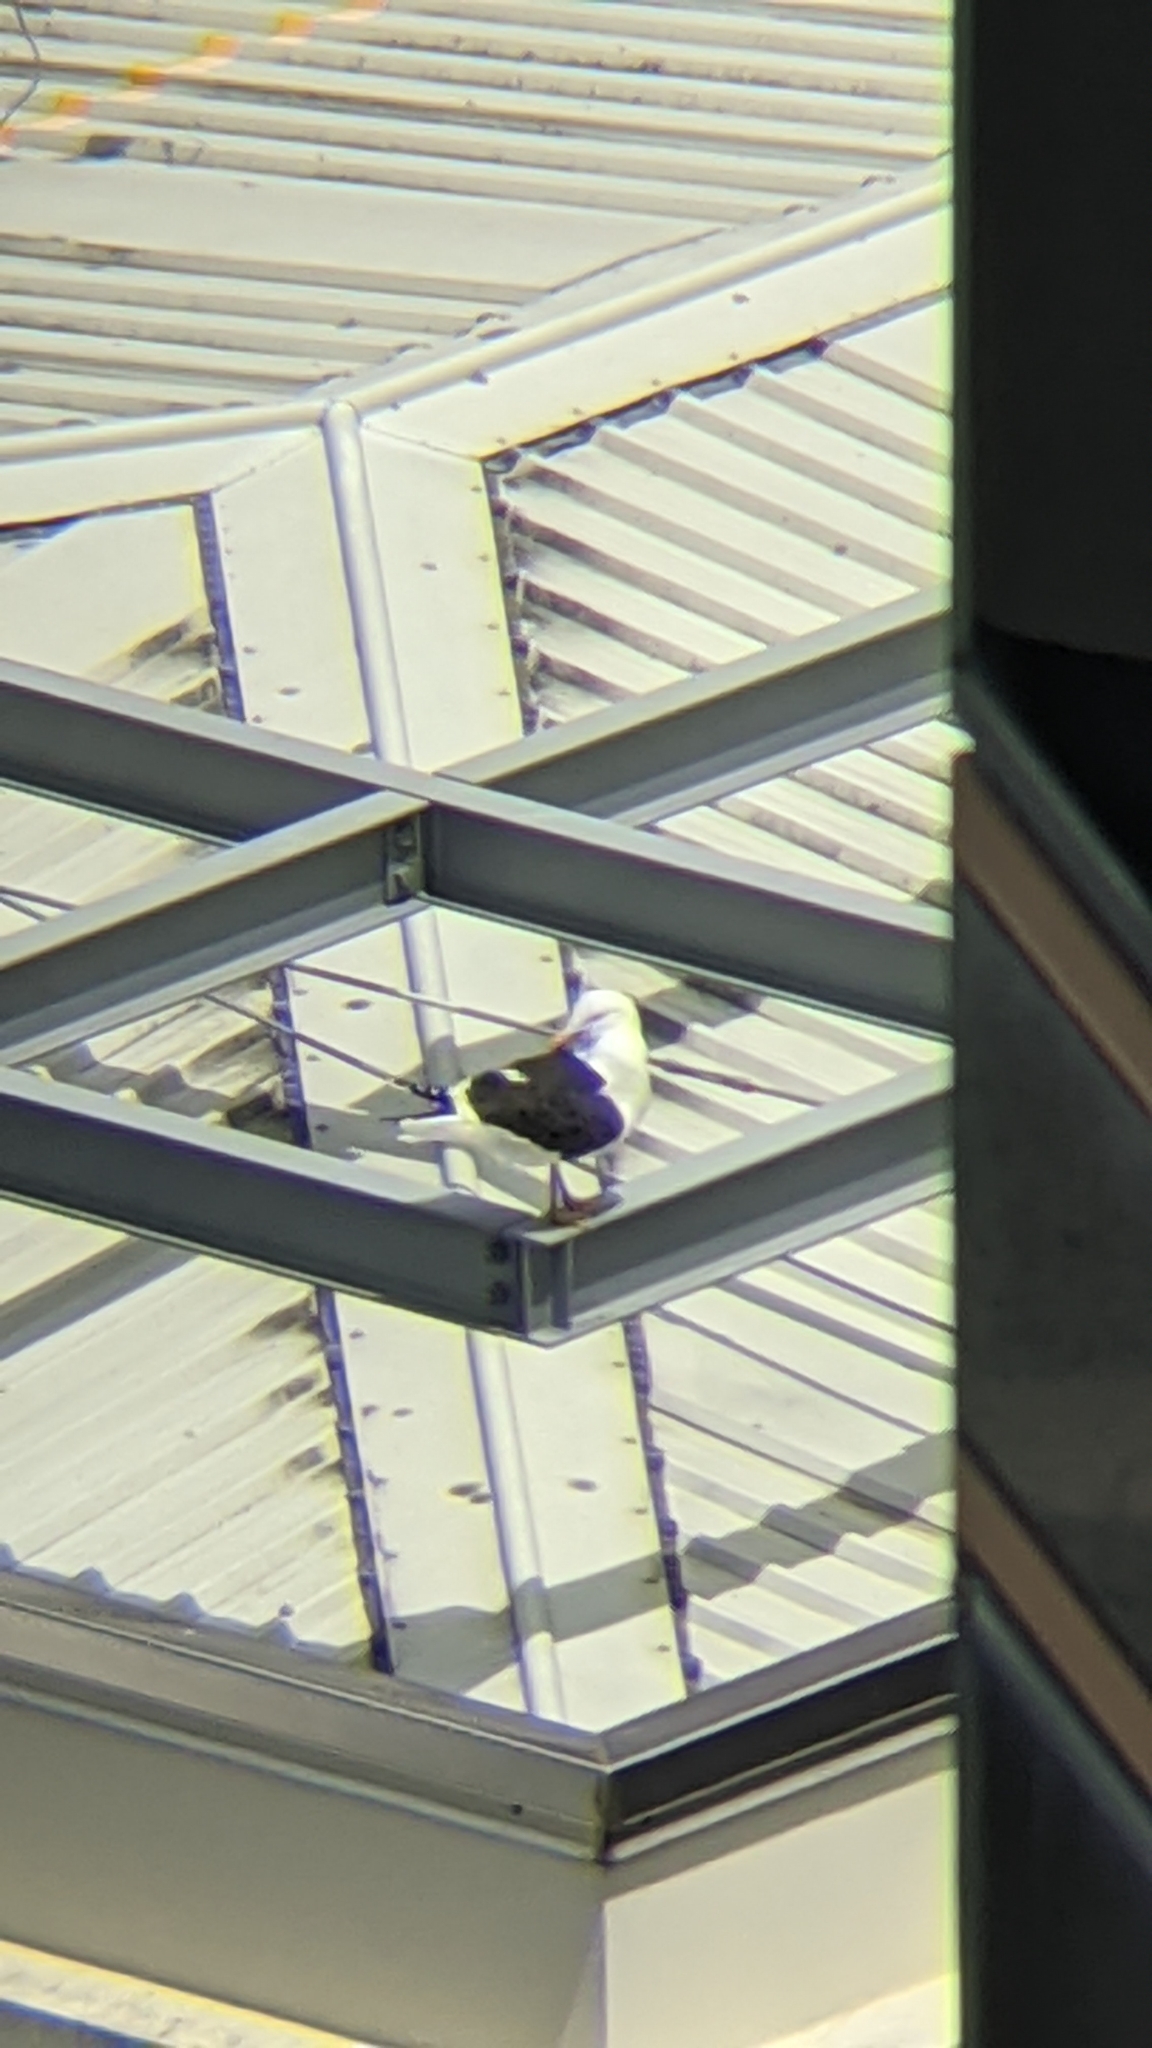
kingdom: Animalia
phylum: Chordata
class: Aves
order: Charadriiformes
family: Laridae
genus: Larus
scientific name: Larus dominicanus
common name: Kelp gull
